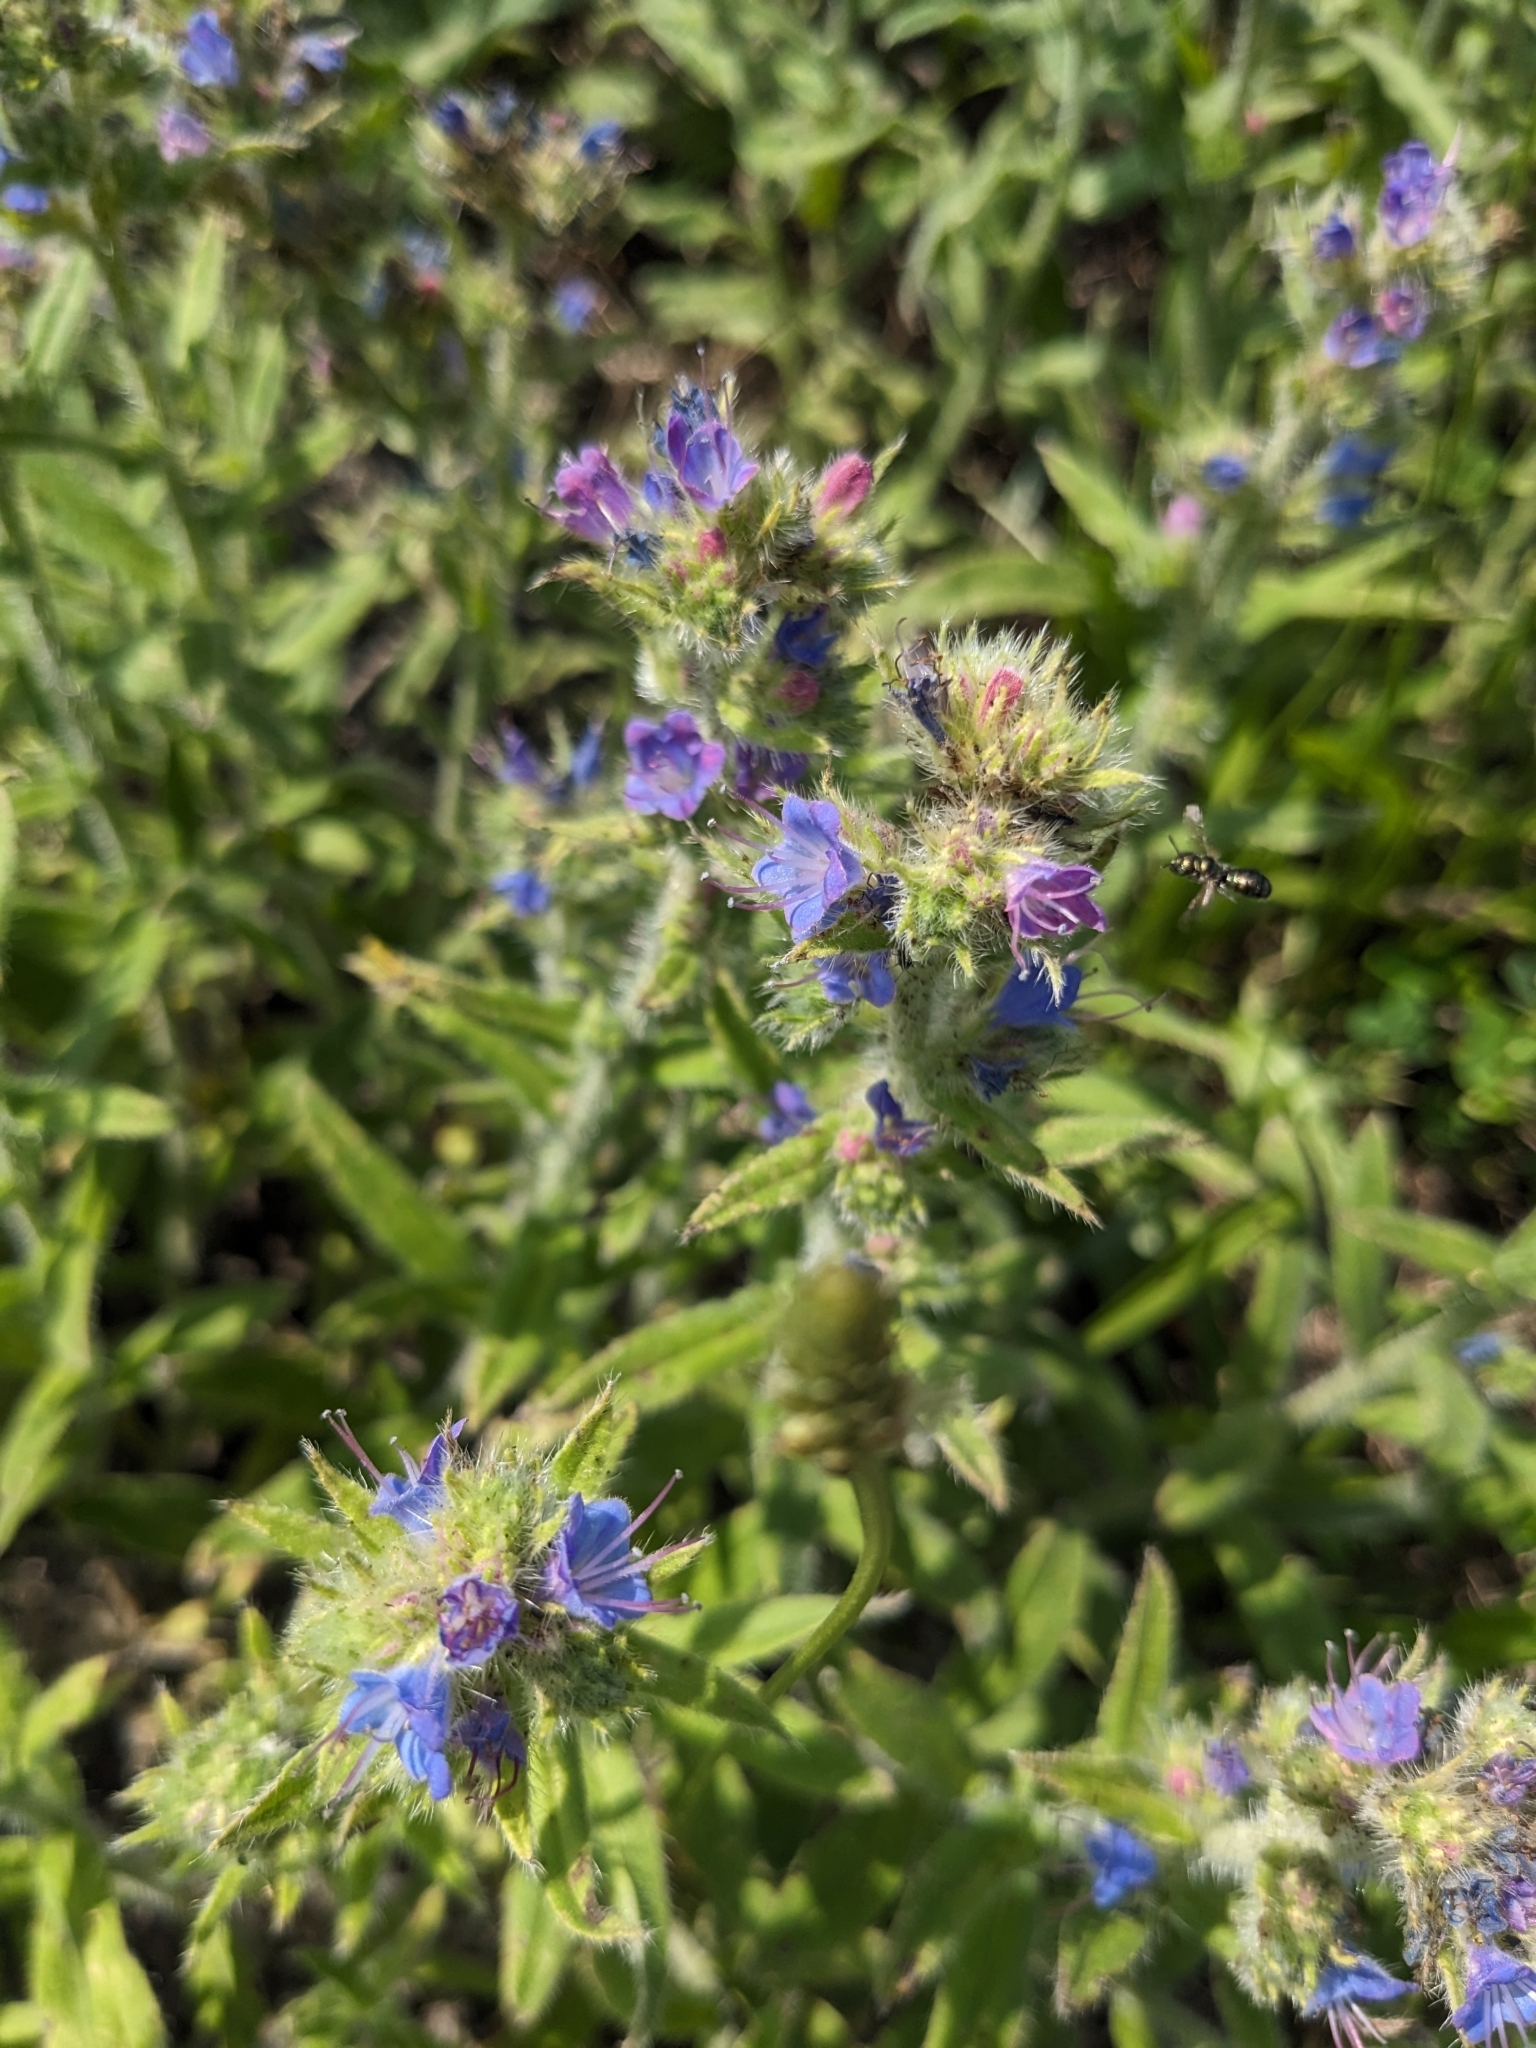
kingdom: Plantae
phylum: Tracheophyta
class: Magnoliopsida
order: Boraginales
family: Boraginaceae
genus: Echium
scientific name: Echium vulgare
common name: Common viper's bugloss
